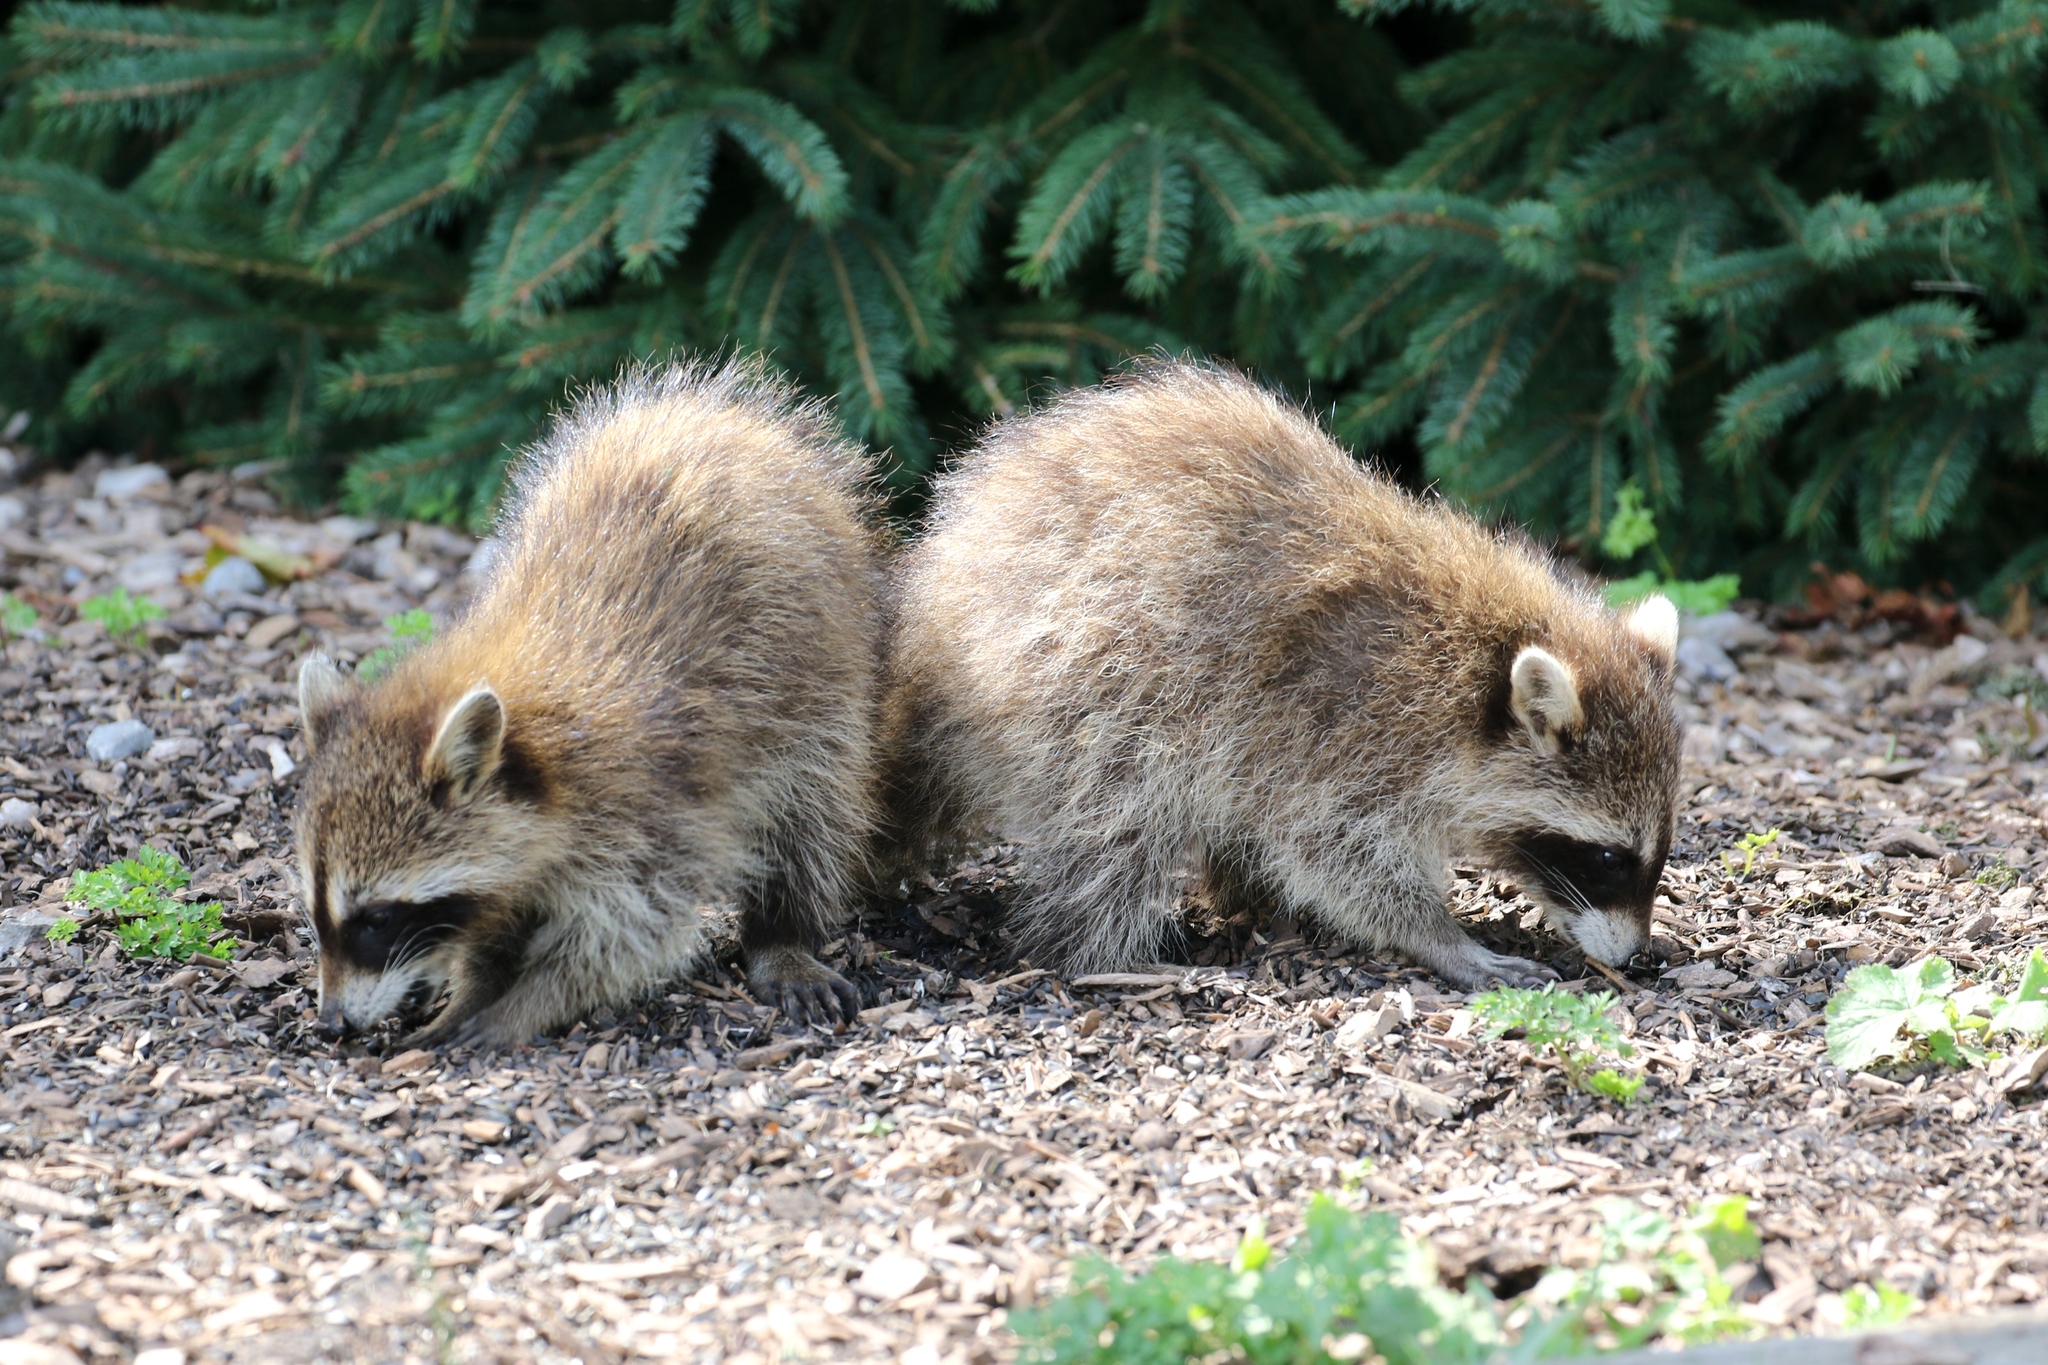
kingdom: Animalia
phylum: Chordata
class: Mammalia
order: Carnivora
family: Procyonidae
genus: Procyon
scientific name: Procyon lotor
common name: Raccoon
